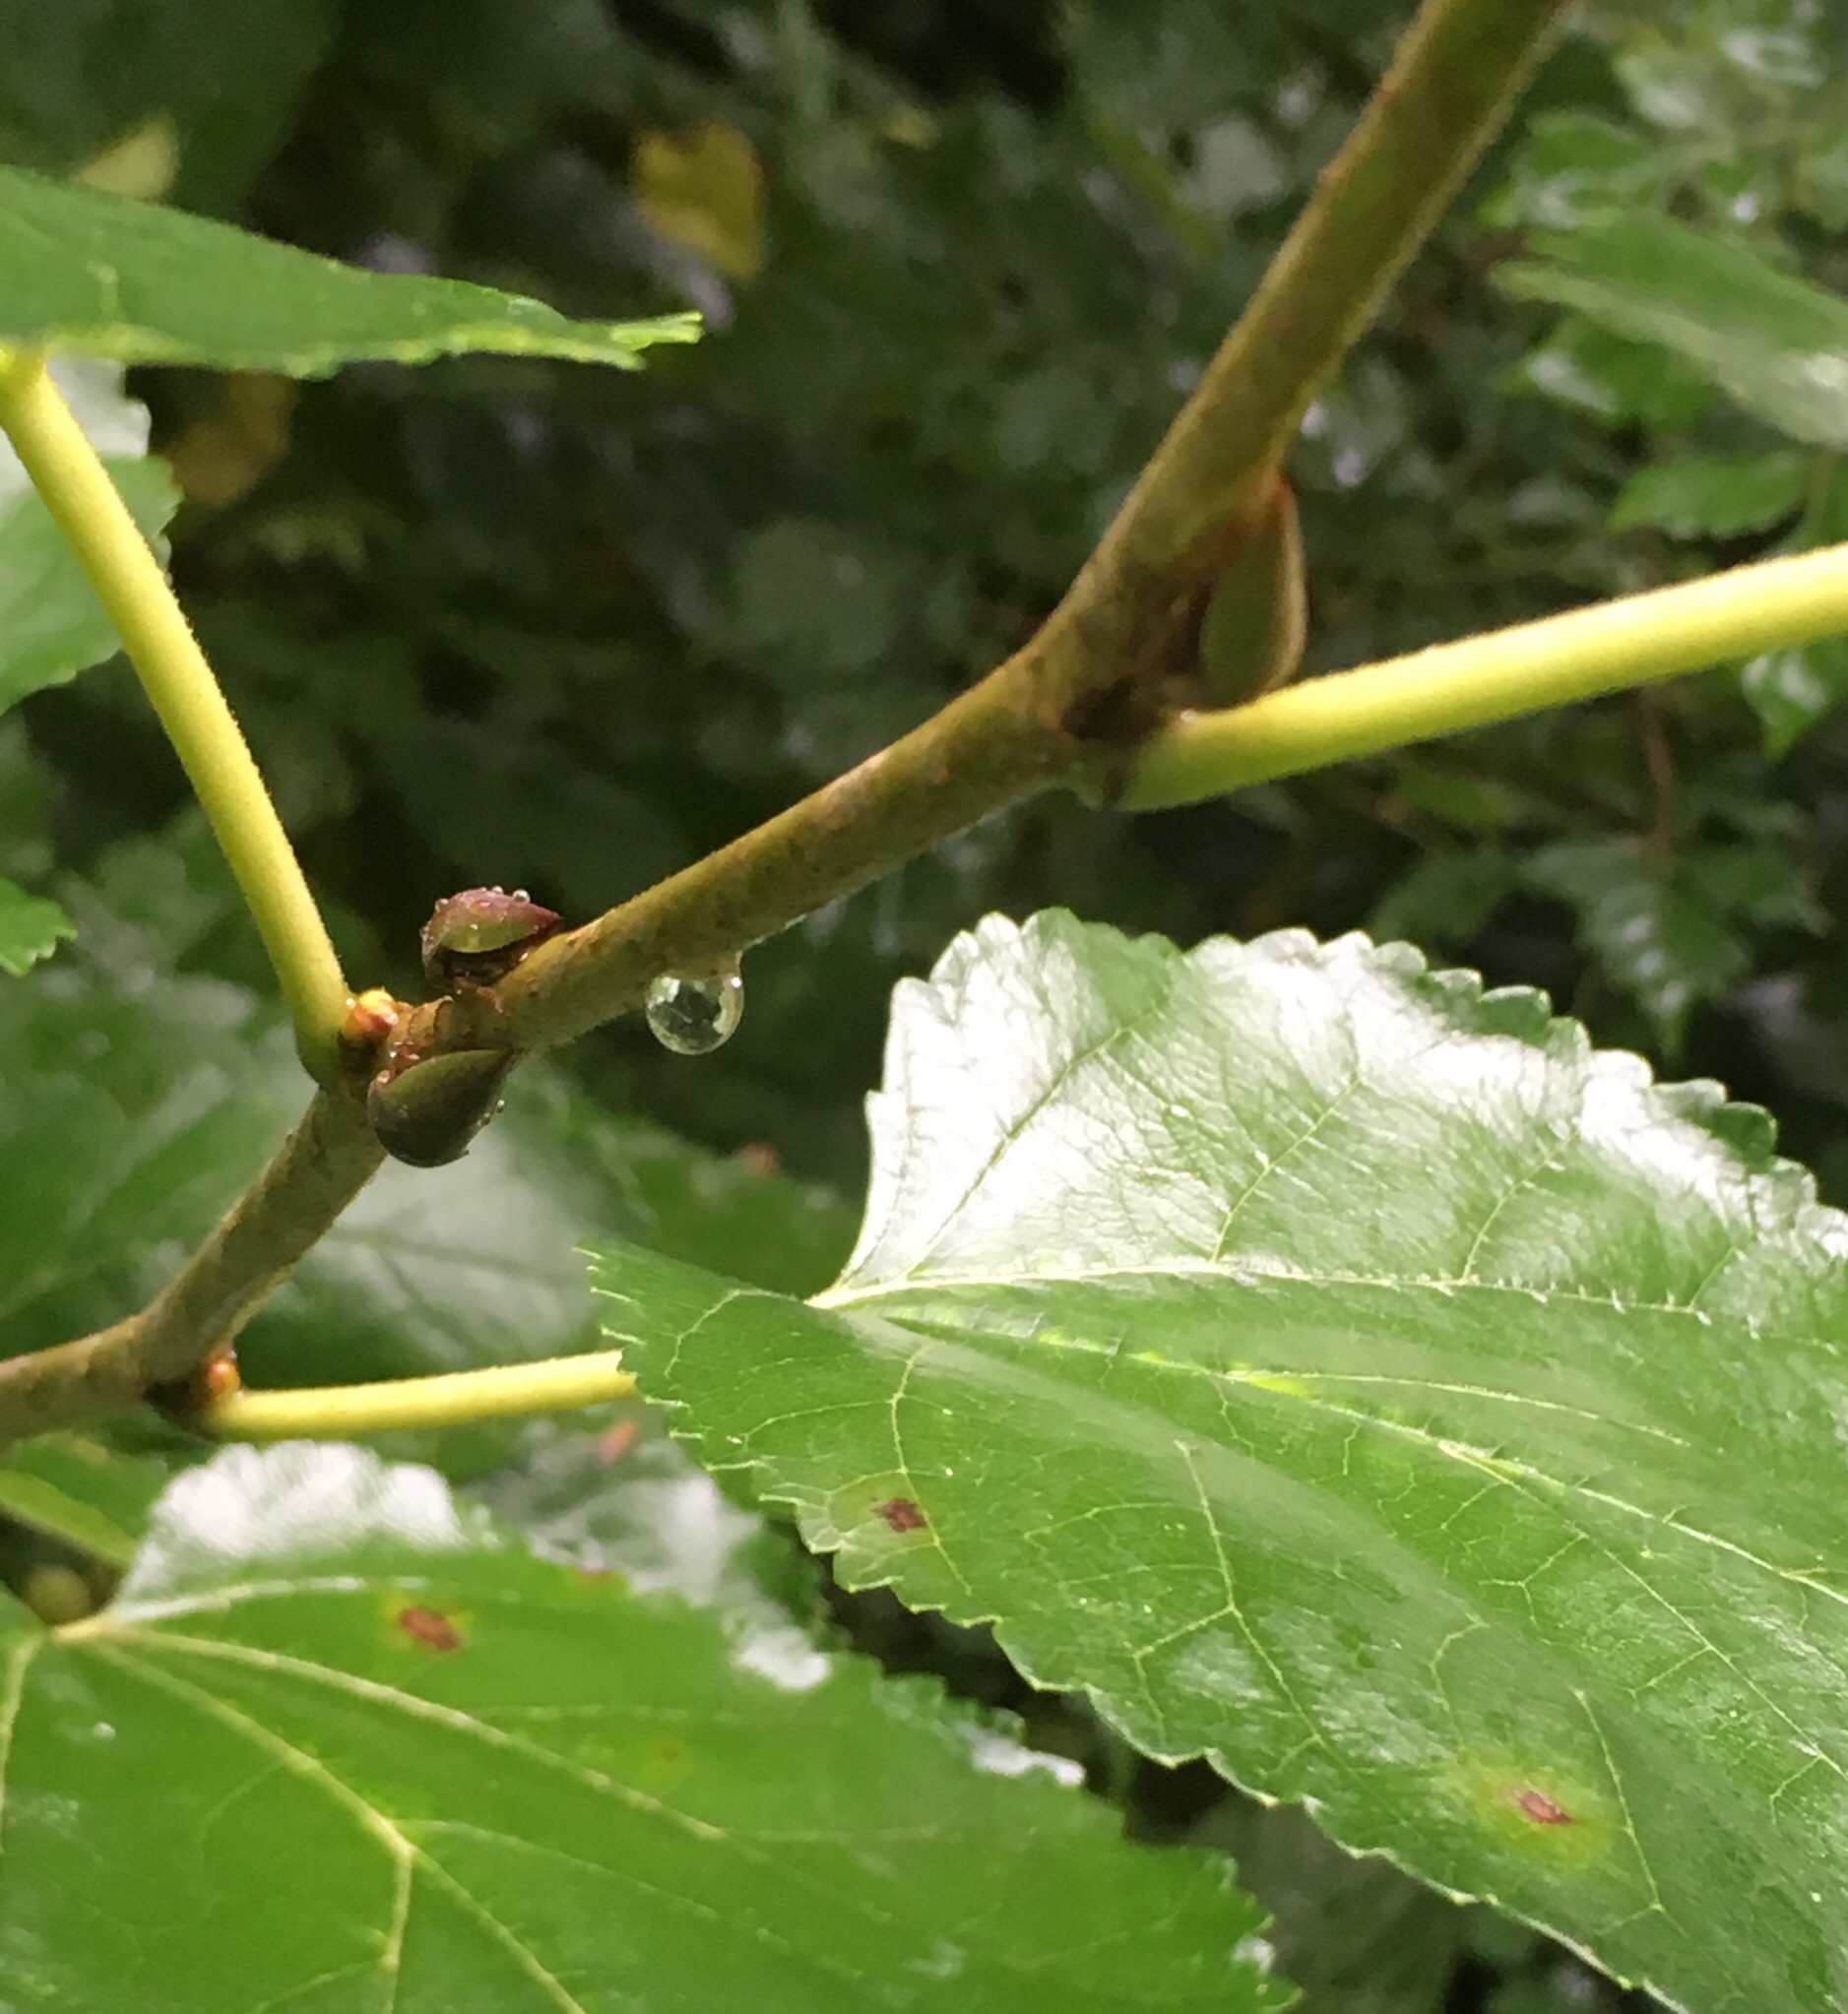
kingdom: Animalia
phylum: Arthropoda
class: Insecta
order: Hemiptera
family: Membracidae
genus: Hebetica
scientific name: Hebetica
